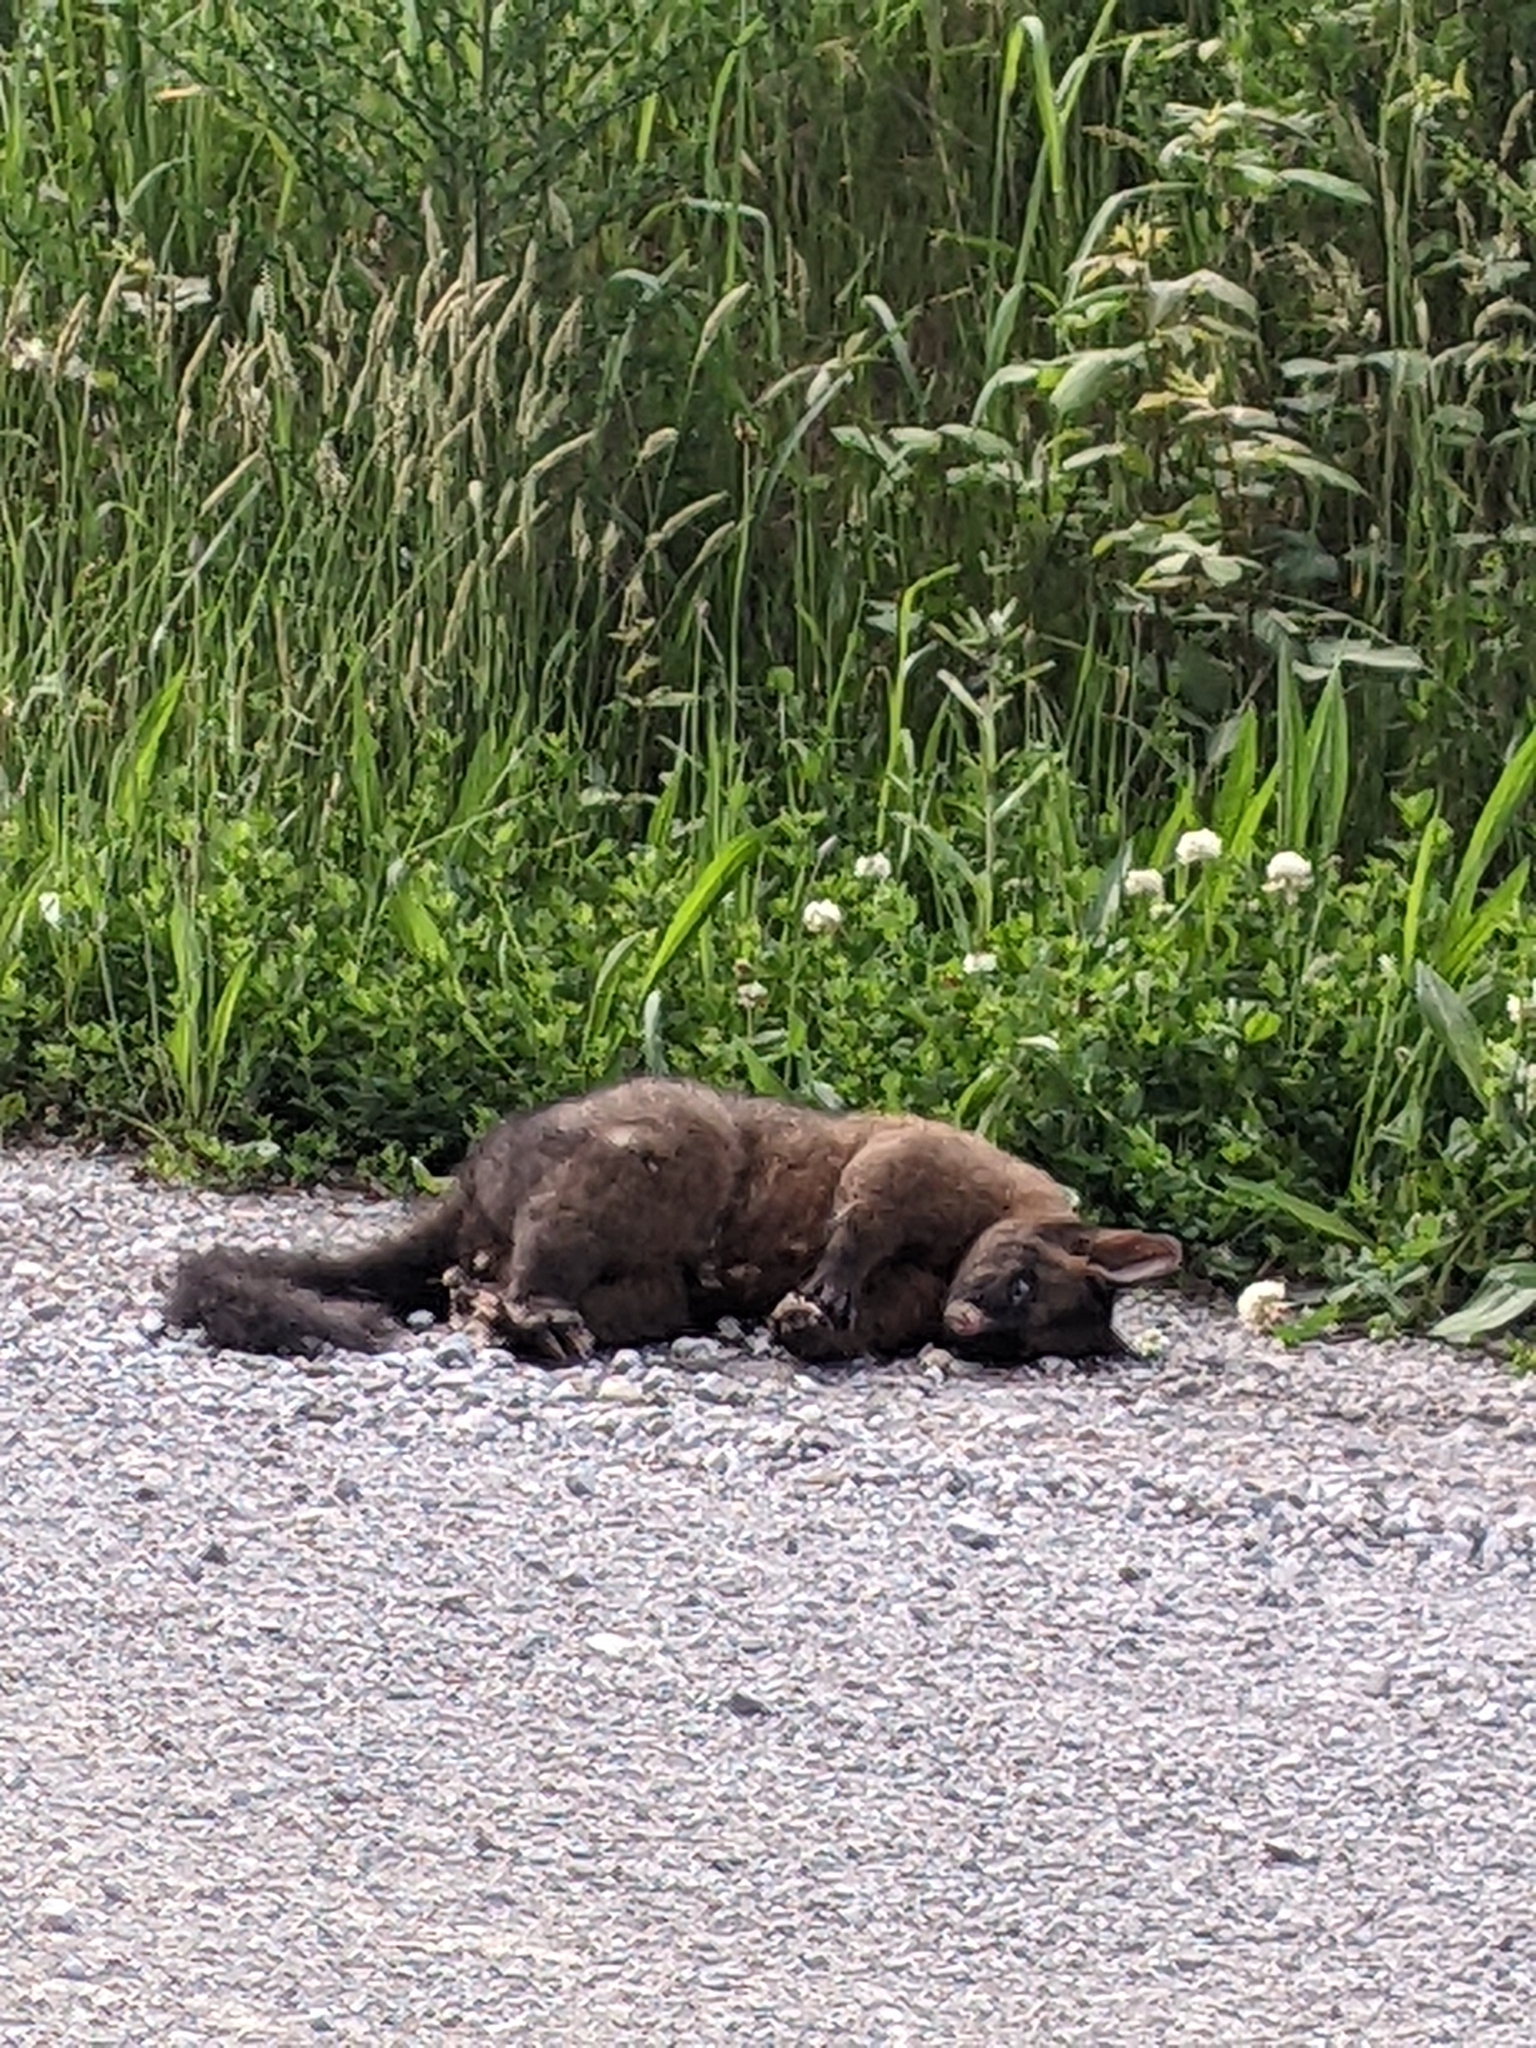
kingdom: Animalia
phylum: Chordata
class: Mammalia
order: Diprotodontia
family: Phalangeridae
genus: Trichosurus
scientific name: Trichosurus vulpecula
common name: Common brushtail
